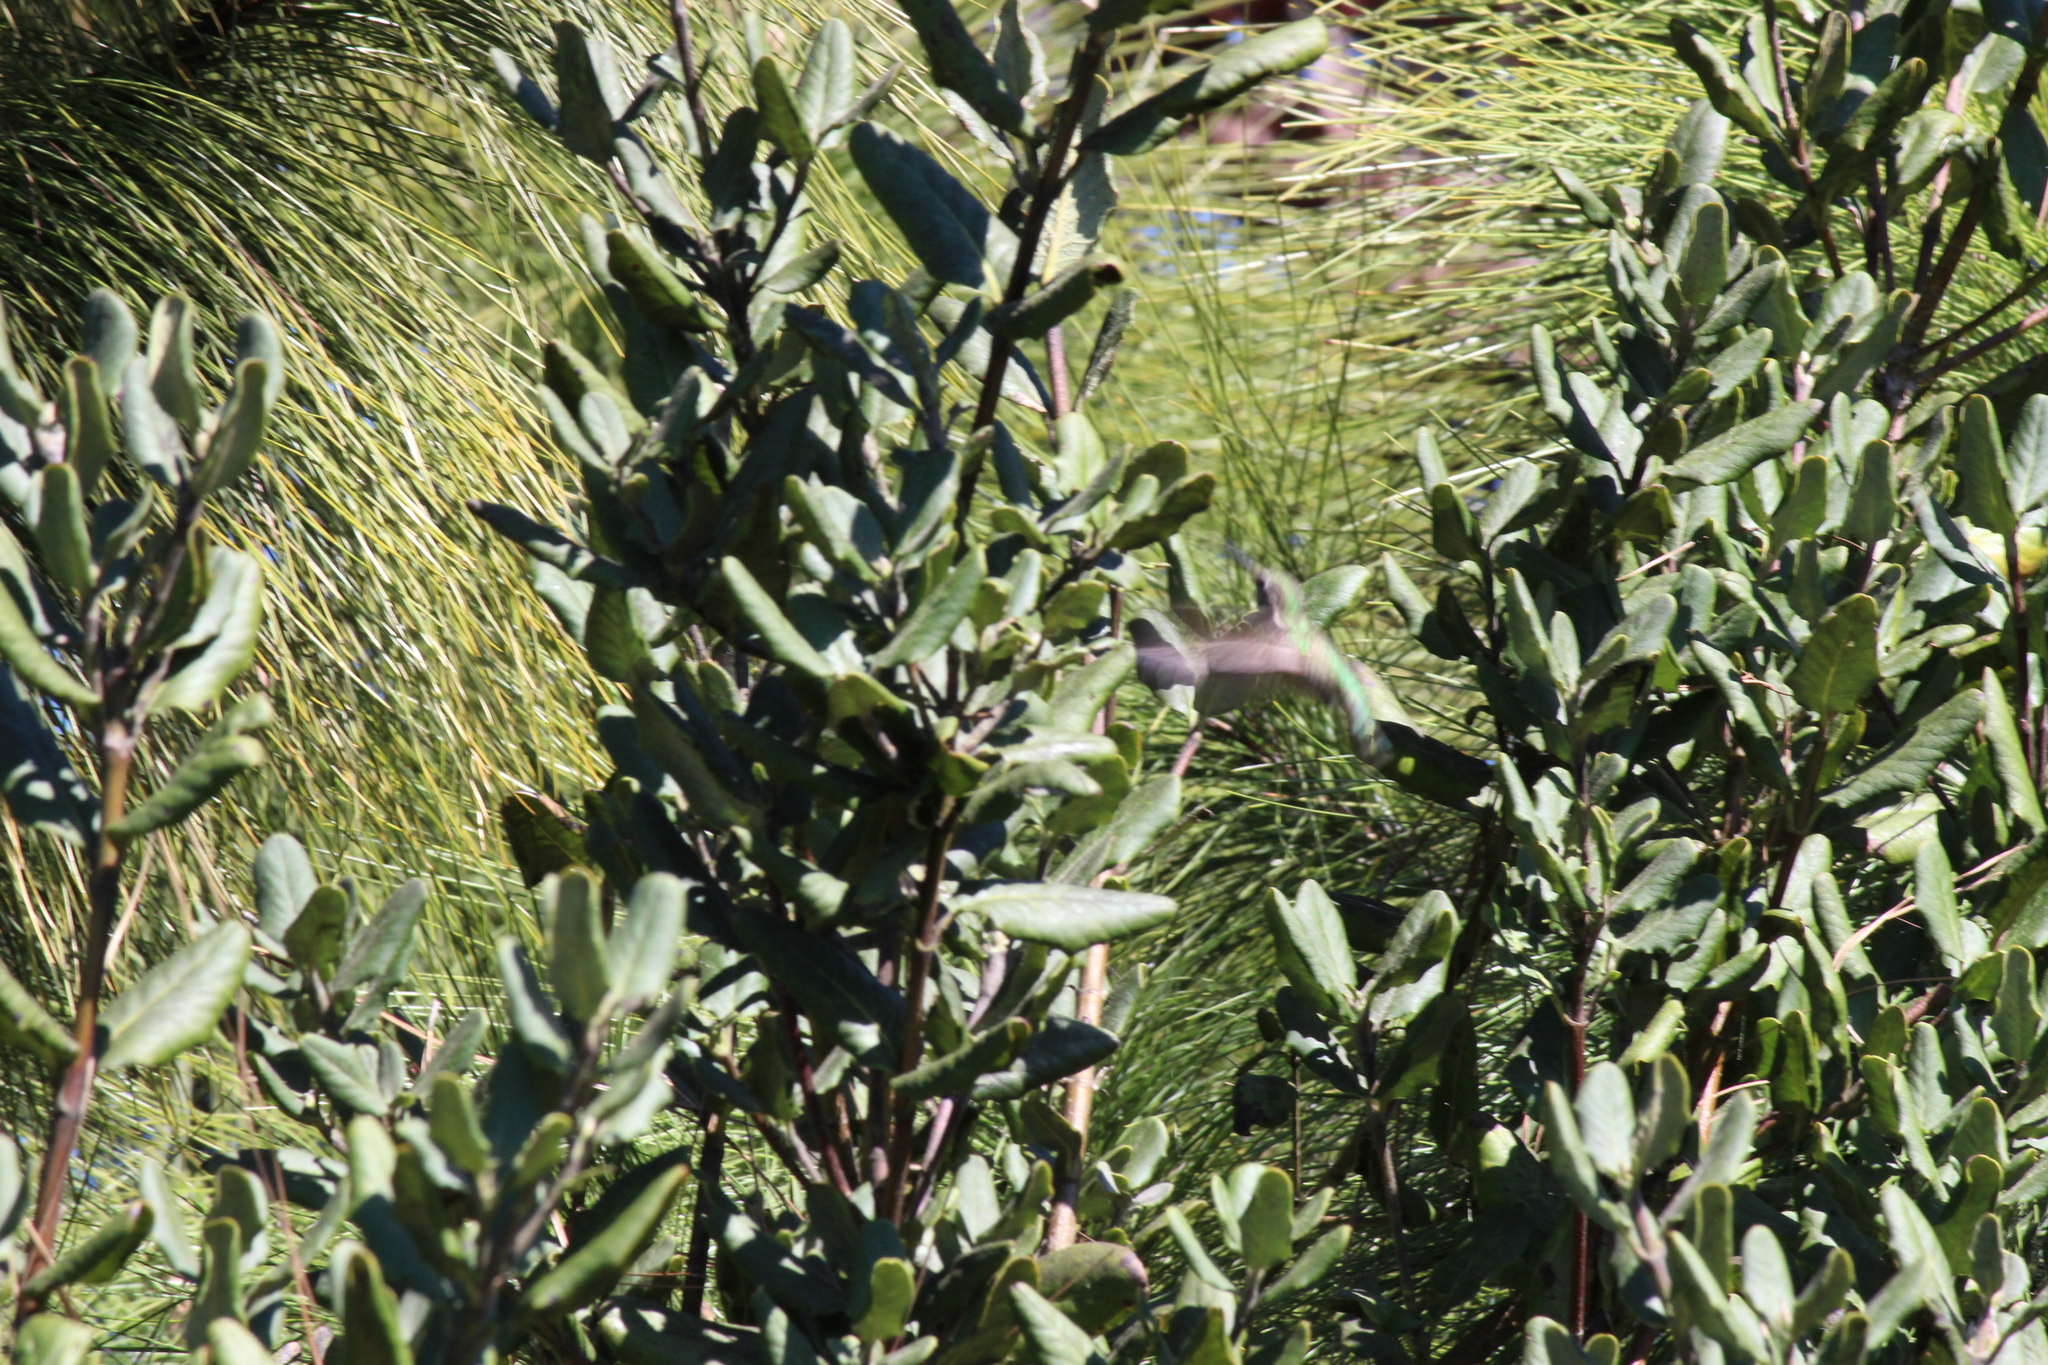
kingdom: Animalia
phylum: Chordata
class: Aves
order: Apodiformes
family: Trochilidae
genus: Calypte
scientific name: Calypte anna
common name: Anna's hummingbird
